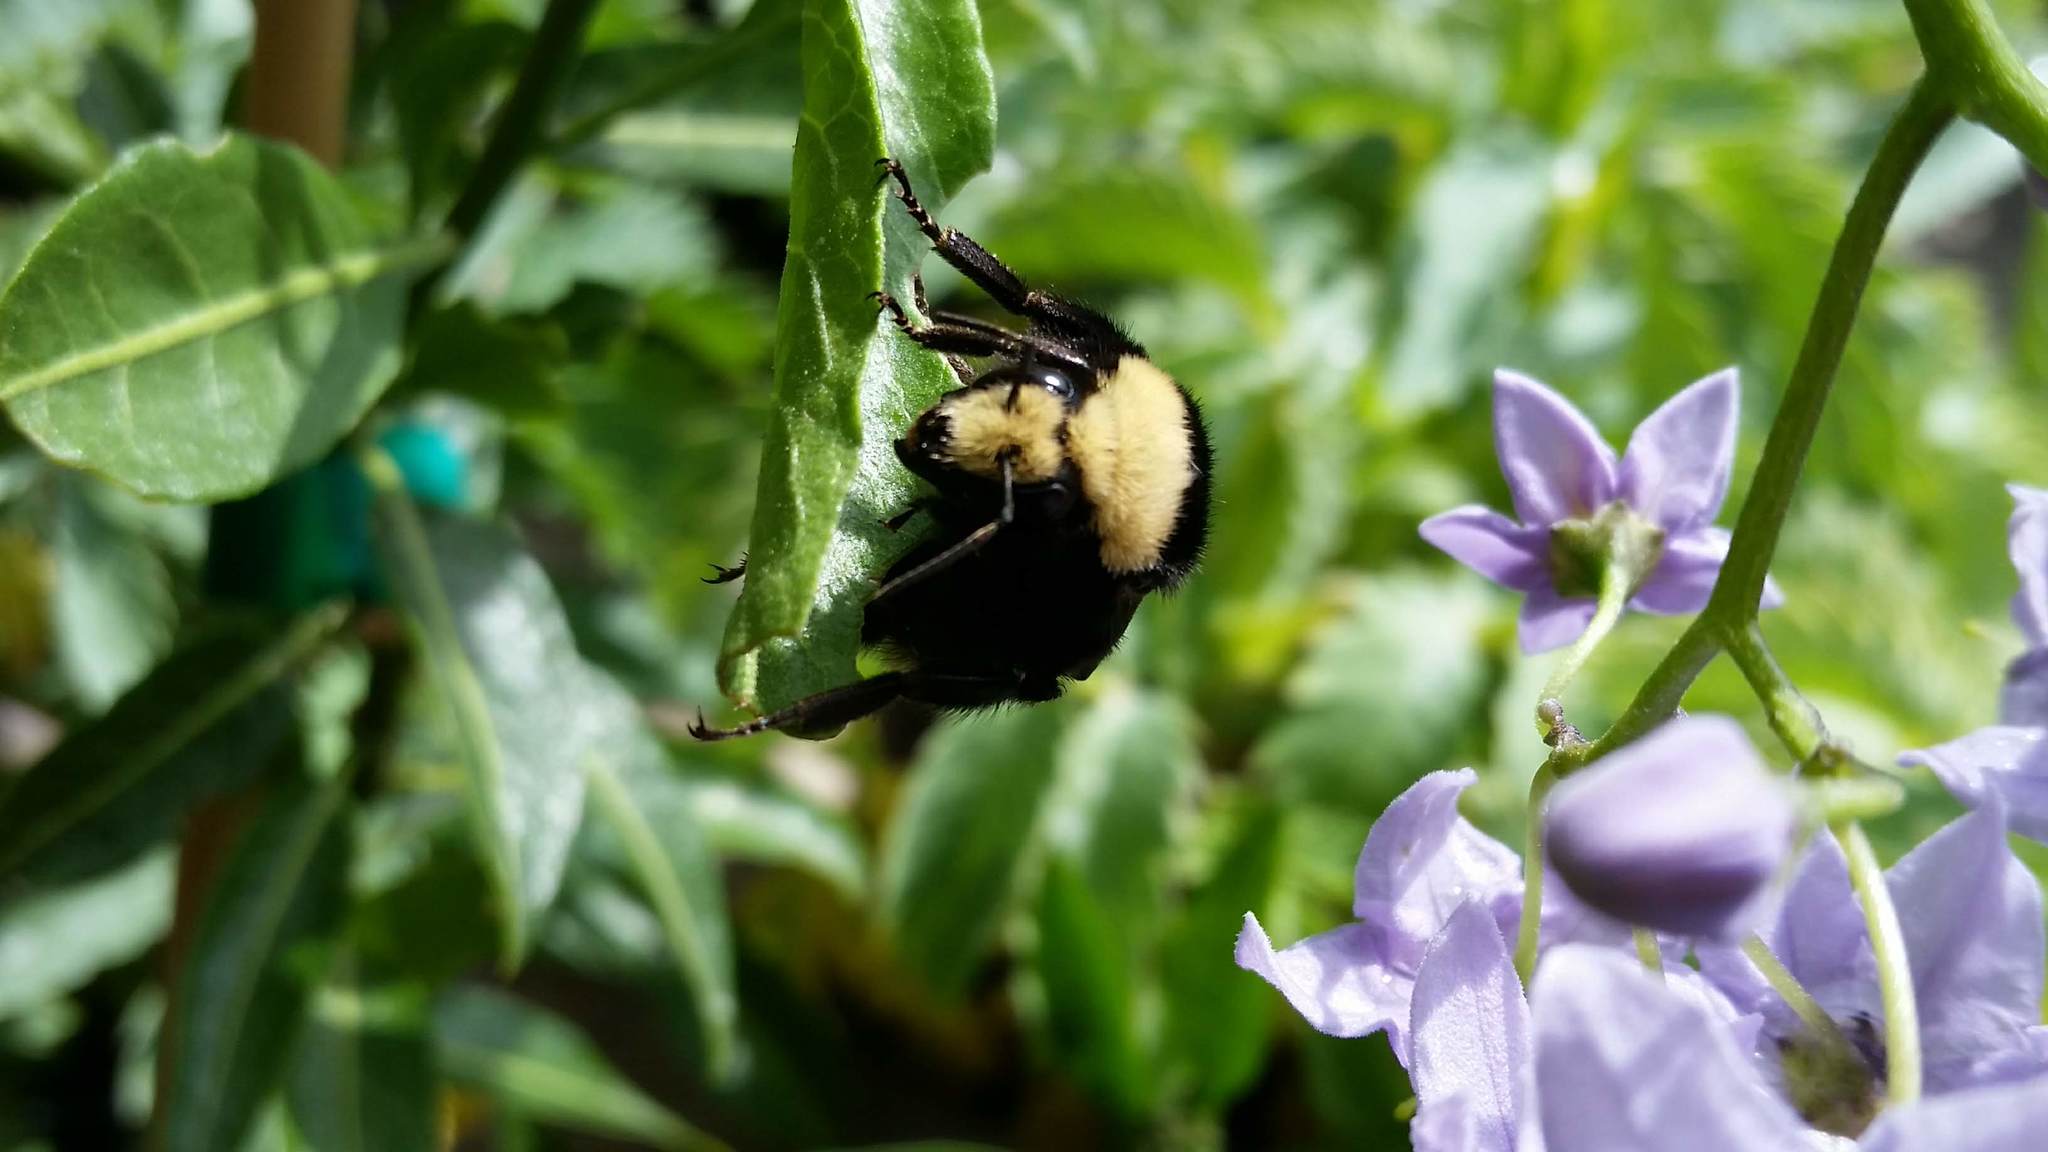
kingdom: Animalia
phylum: Arthropoda
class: Insecta
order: Hymenoptera
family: Apidae
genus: Bombus
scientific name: Bombus vosnesenskii
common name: Vosnesensky bumble bee
